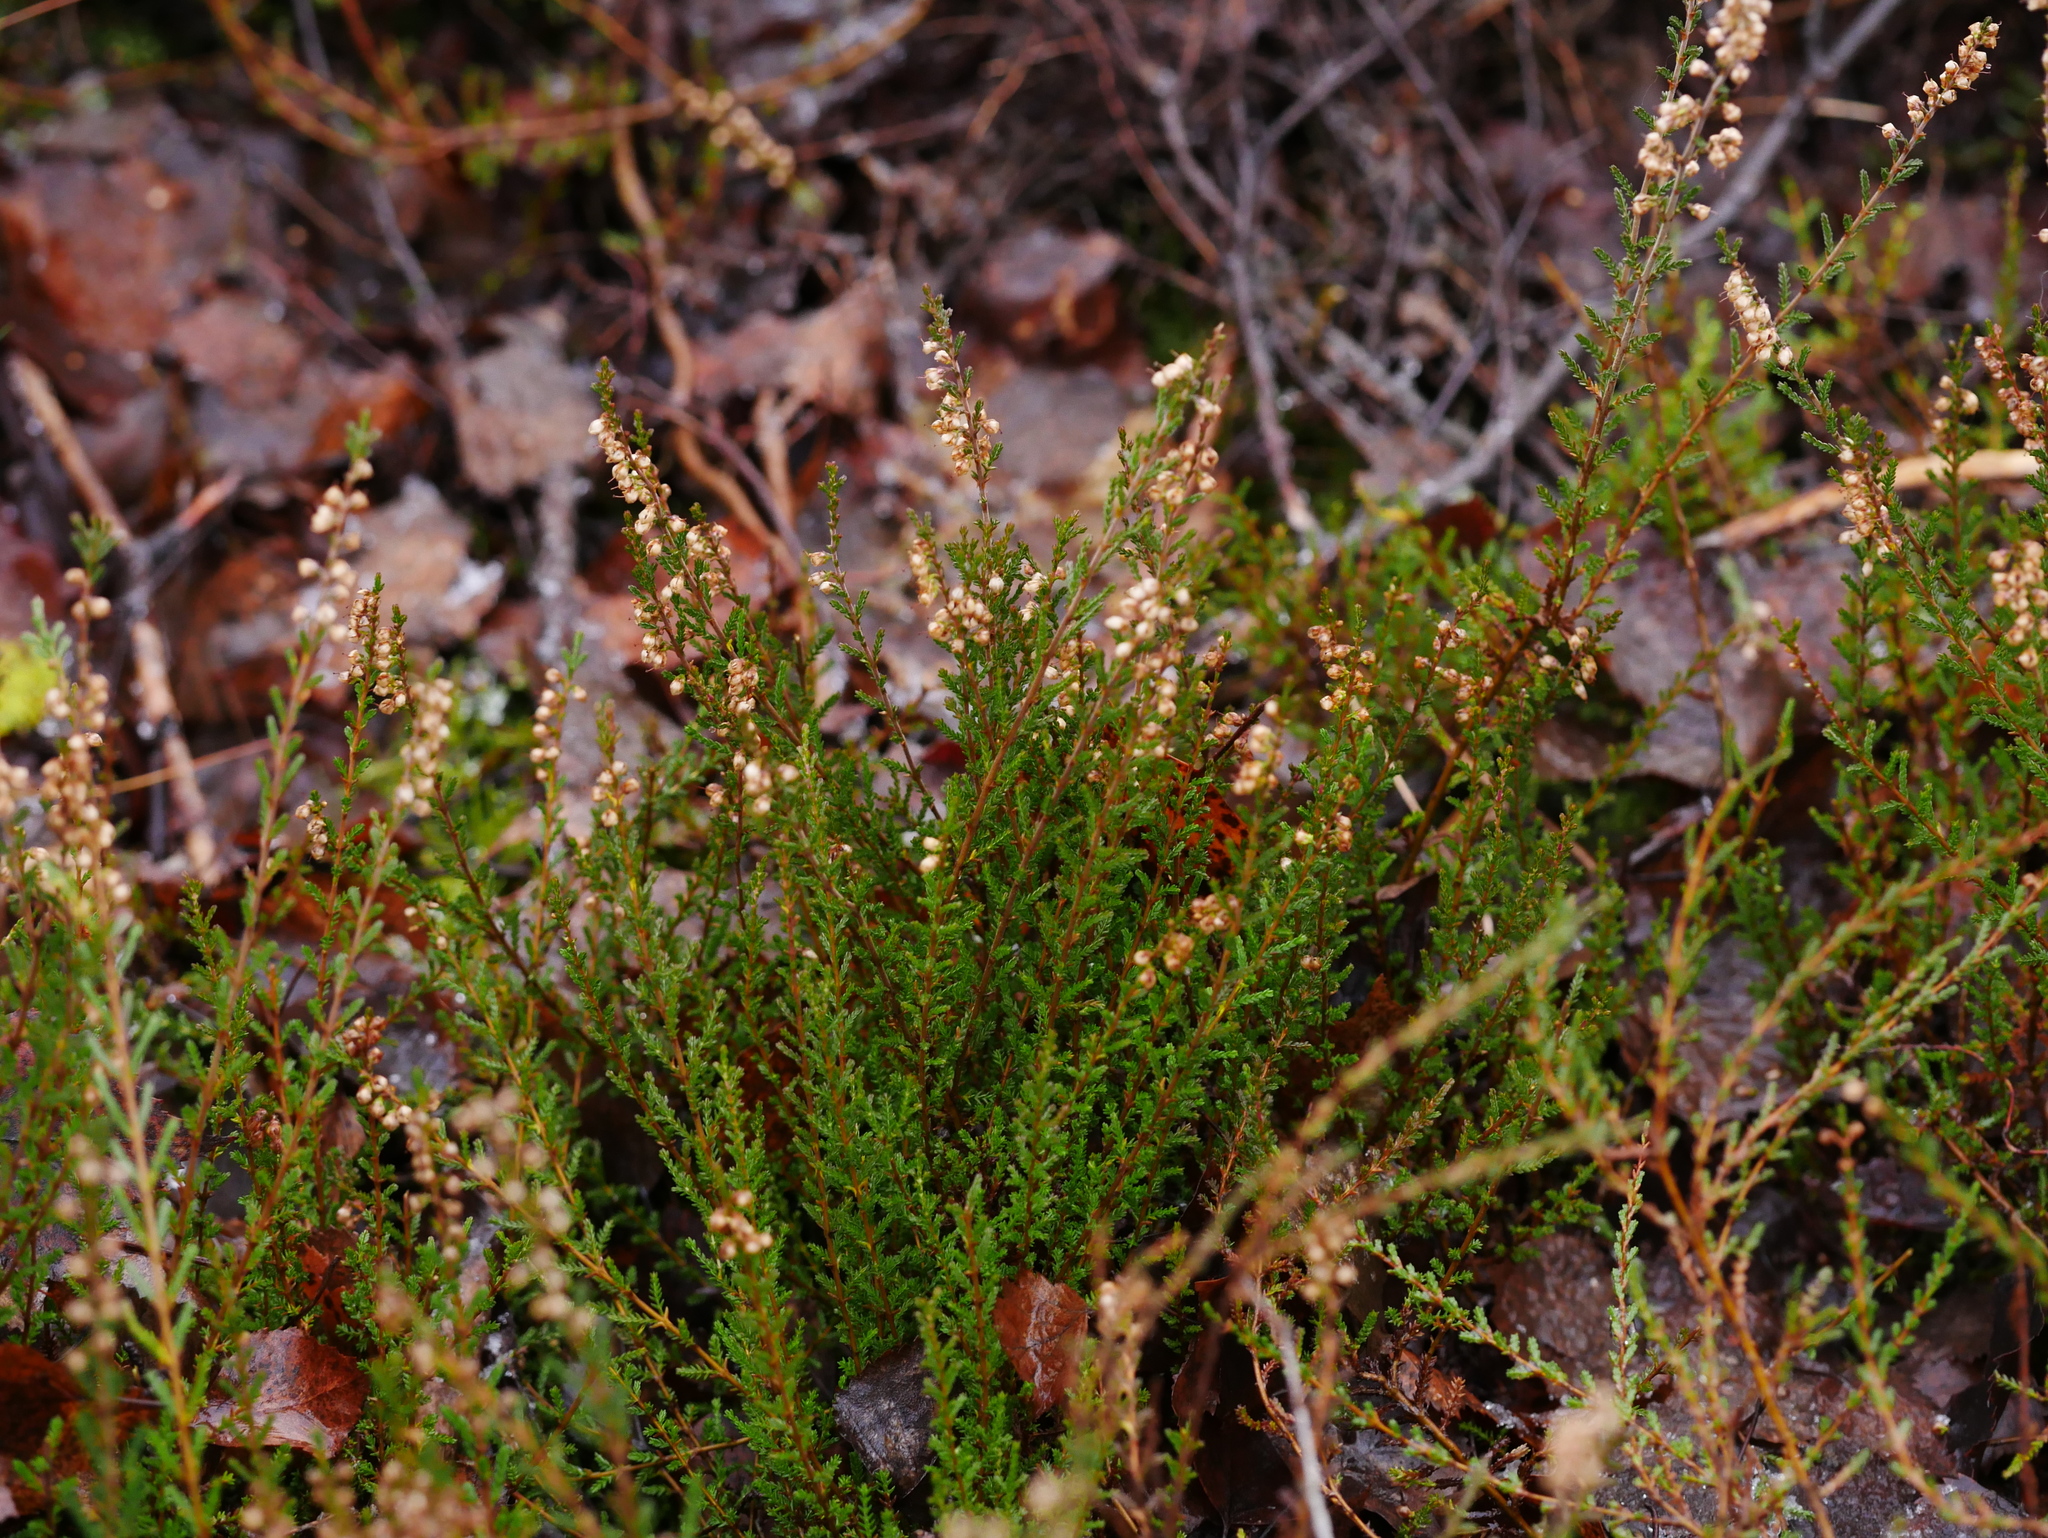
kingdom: Plantae
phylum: Tracheophyta
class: Magnoliopsida
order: Ericales
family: Ericaceae
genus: Calluna
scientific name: Calluna vulgaris
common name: Heather
